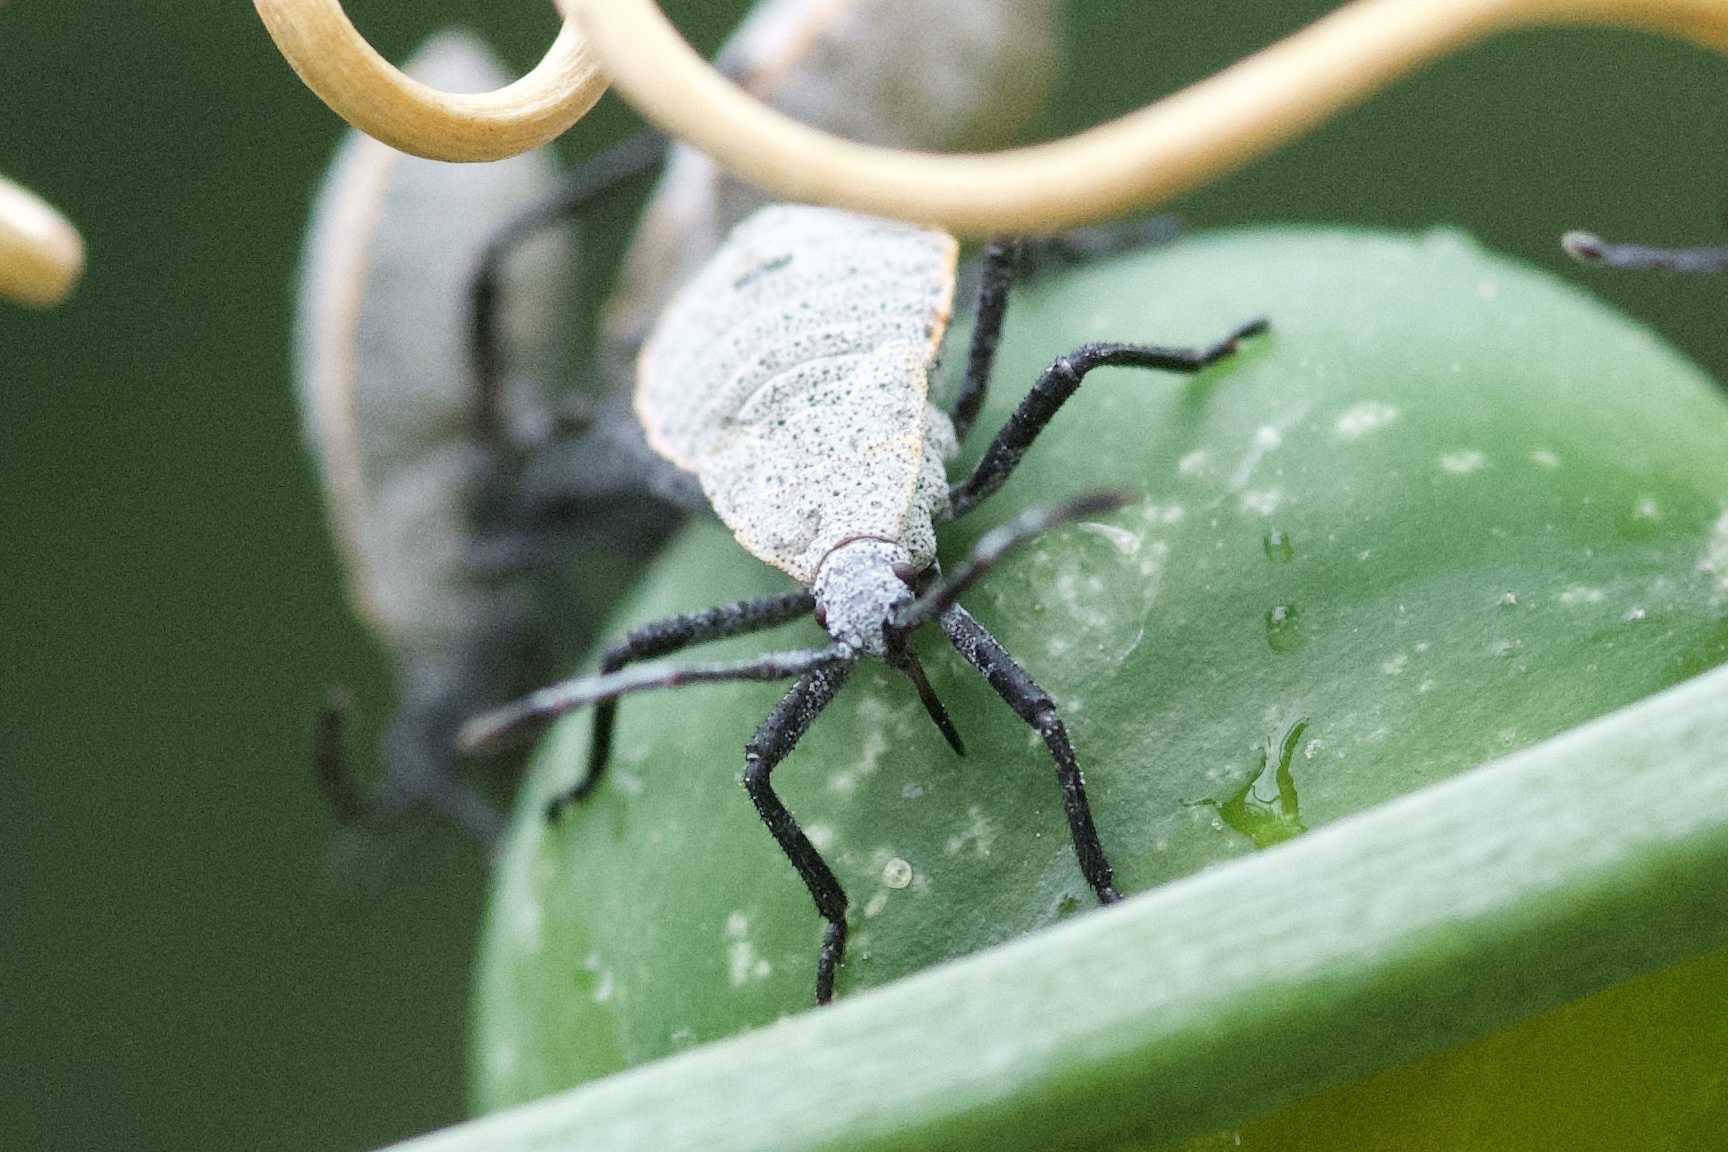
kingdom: Animalia
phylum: Arthropoda
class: Insecta
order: Hemiptera
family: Coreidae
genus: Anasa
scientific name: Anasa tristis
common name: Squash bug
